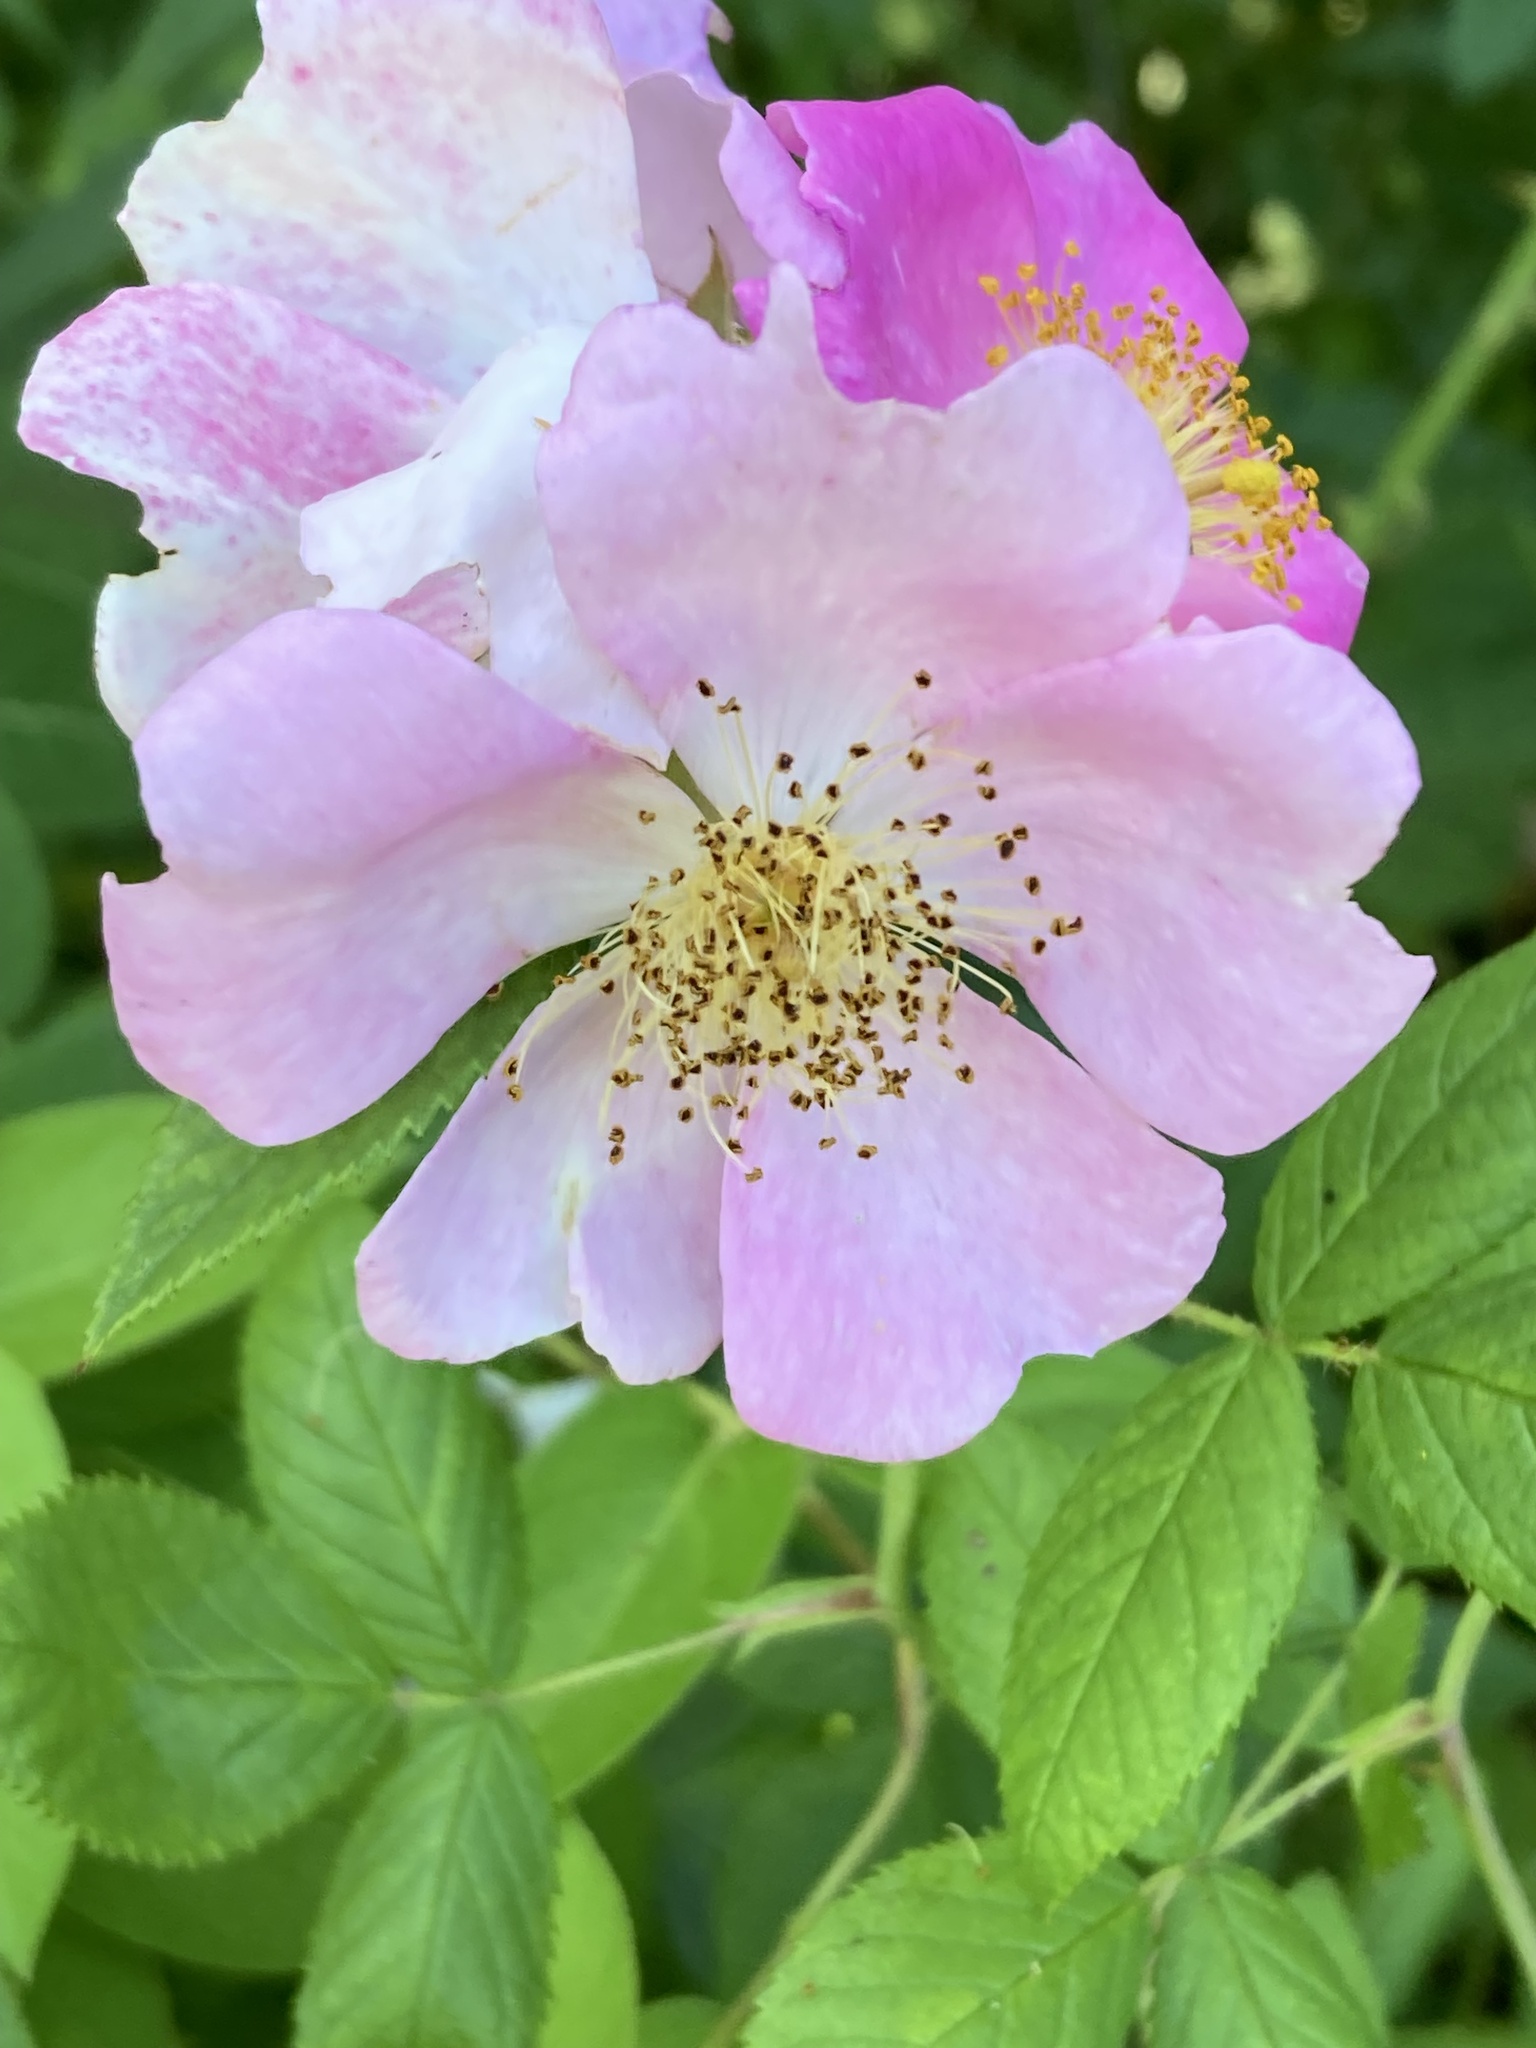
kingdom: Plantae
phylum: Tracheophyta
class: Magnoliopsida
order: Rosales
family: Rosaceae
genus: Rosa
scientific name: Rosa setigera
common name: Prairie rose
